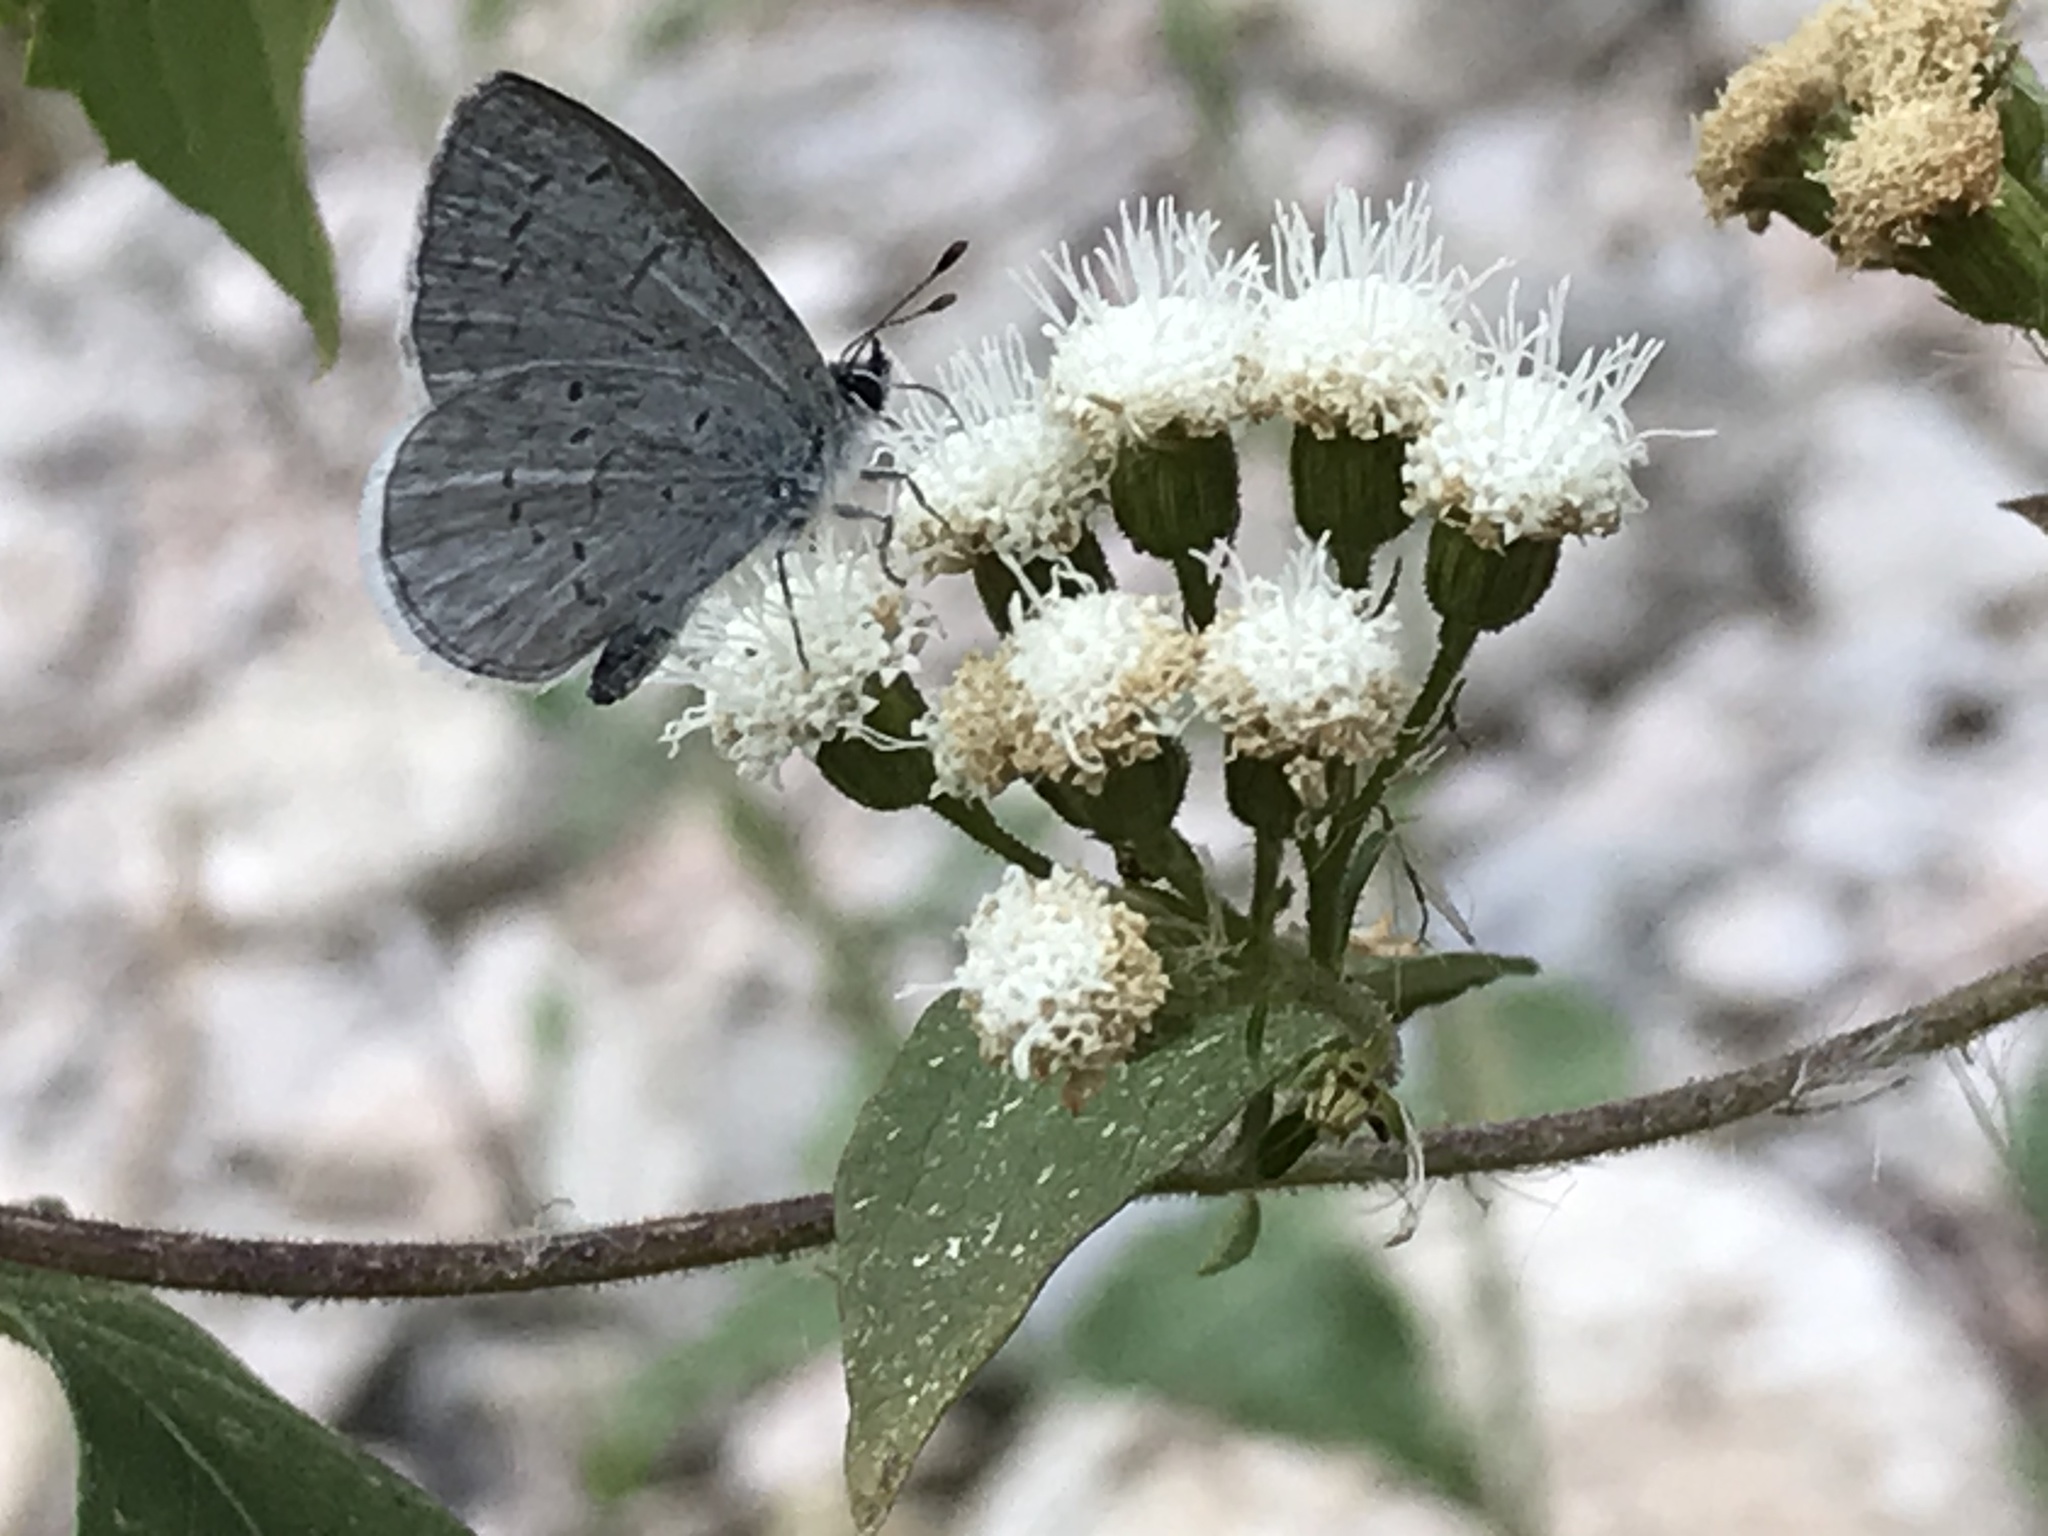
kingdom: Animalia
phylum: Arthropoda
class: Insecta
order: Lepidoptera
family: Lycaenidae
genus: Celastrina
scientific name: Celastrina ladon
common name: Spring azure
